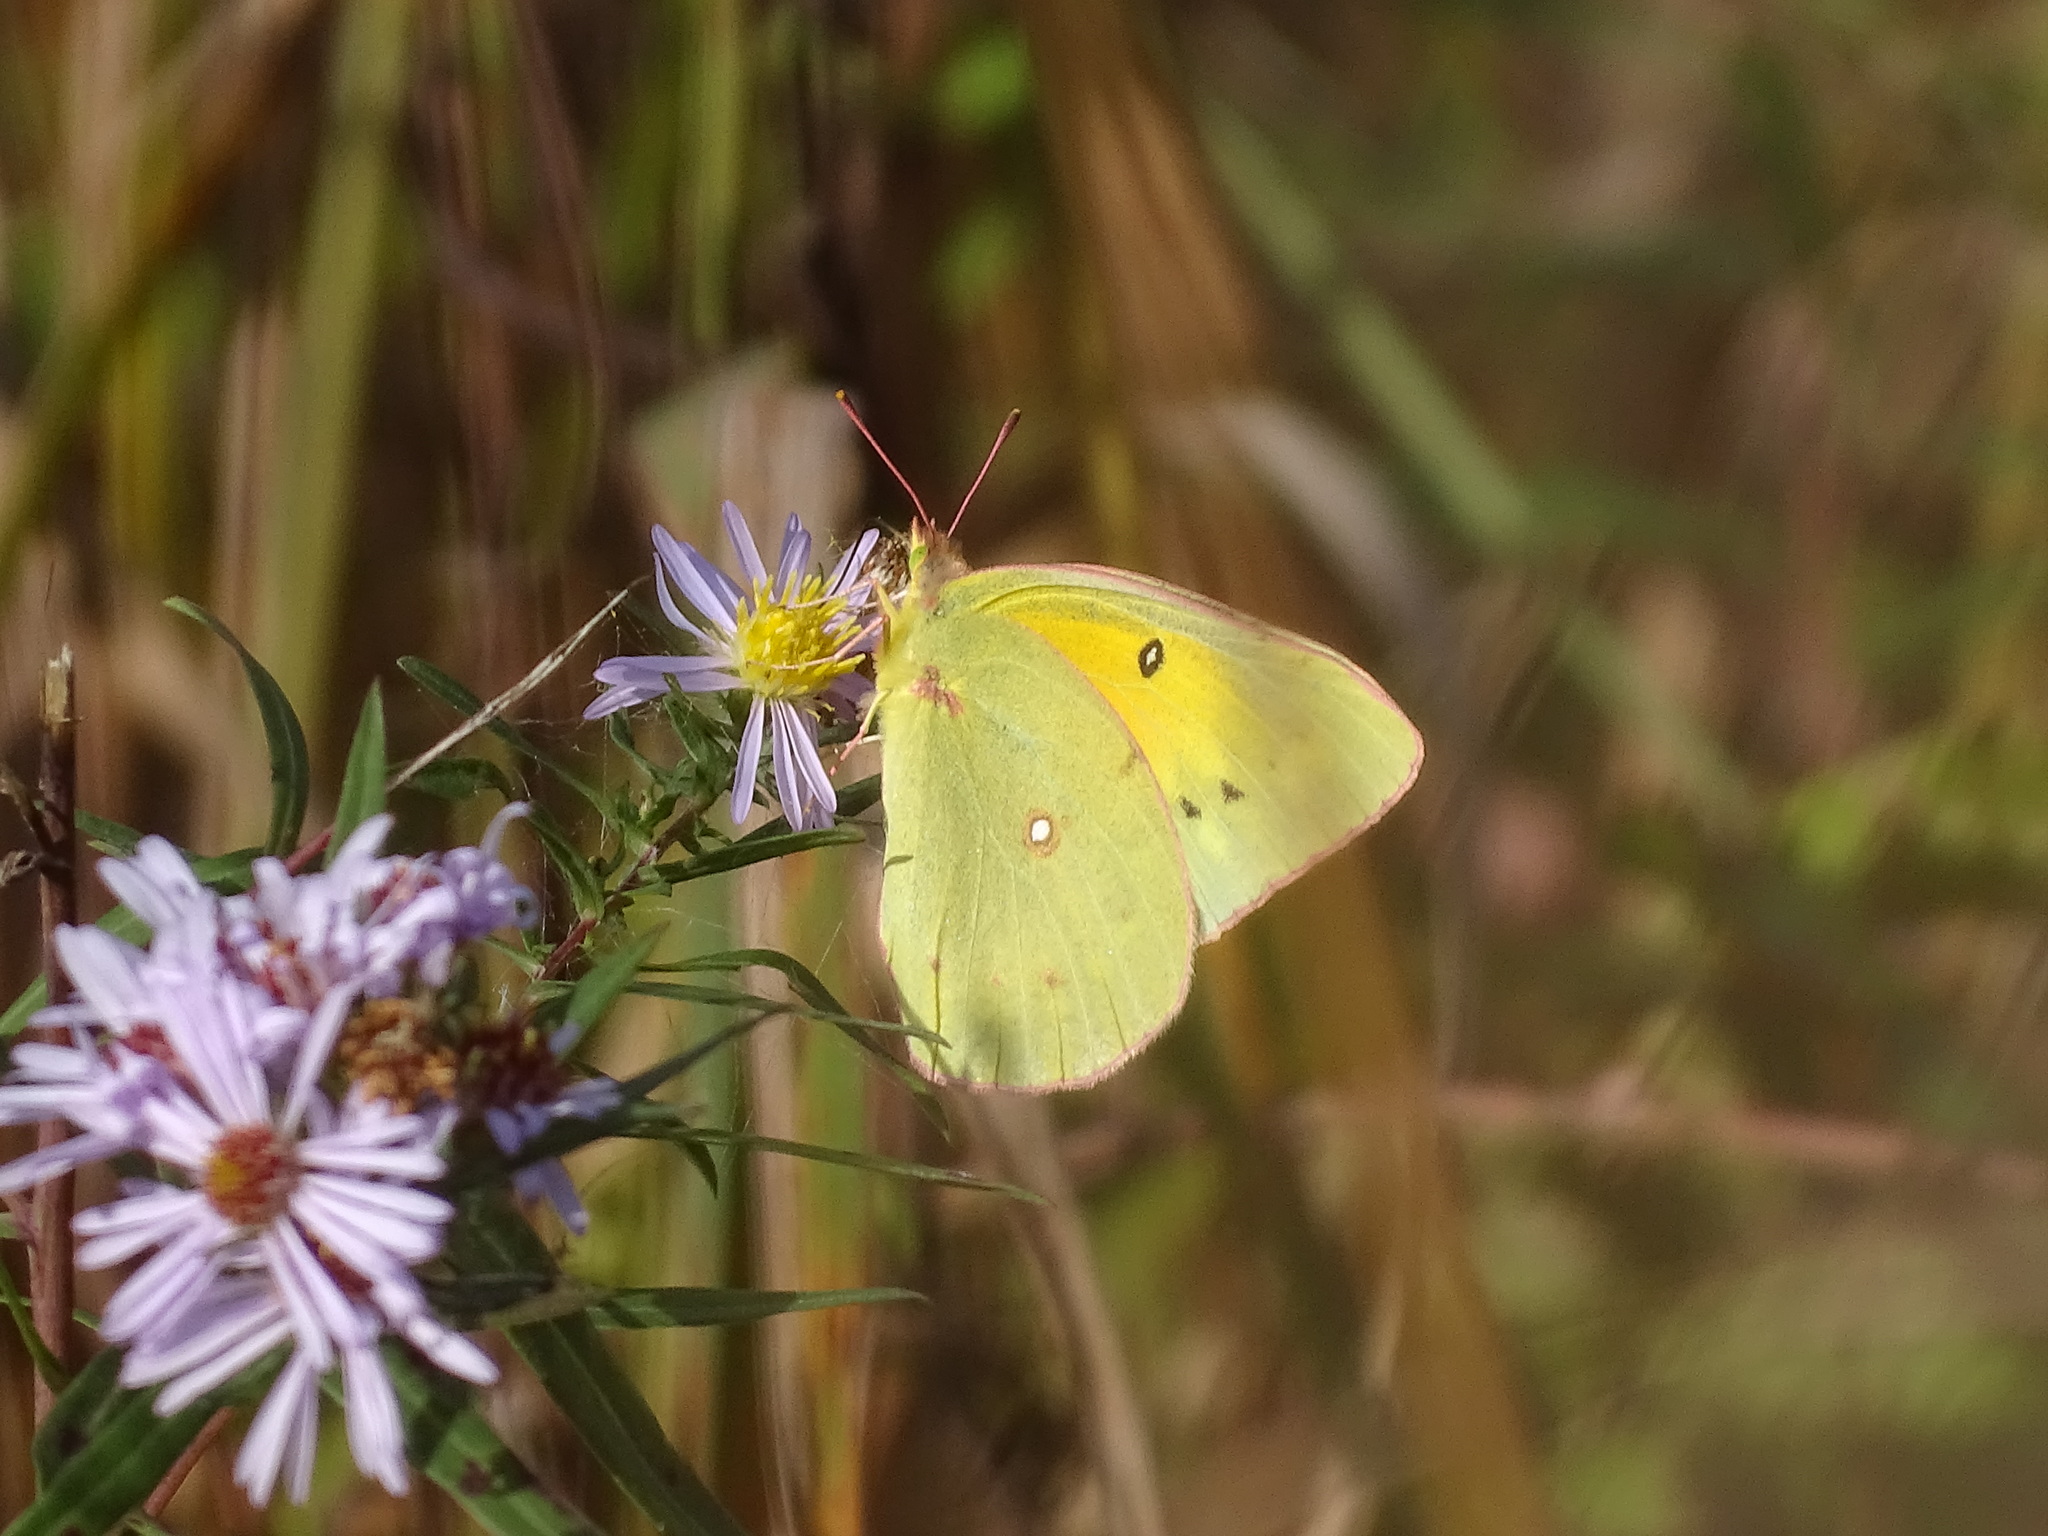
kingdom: Animalia
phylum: Arthropoda
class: Insecta
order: Lepidoptera
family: Pieridae
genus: Colias
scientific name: Colias eurytheme
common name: Alfalfa butterfly
